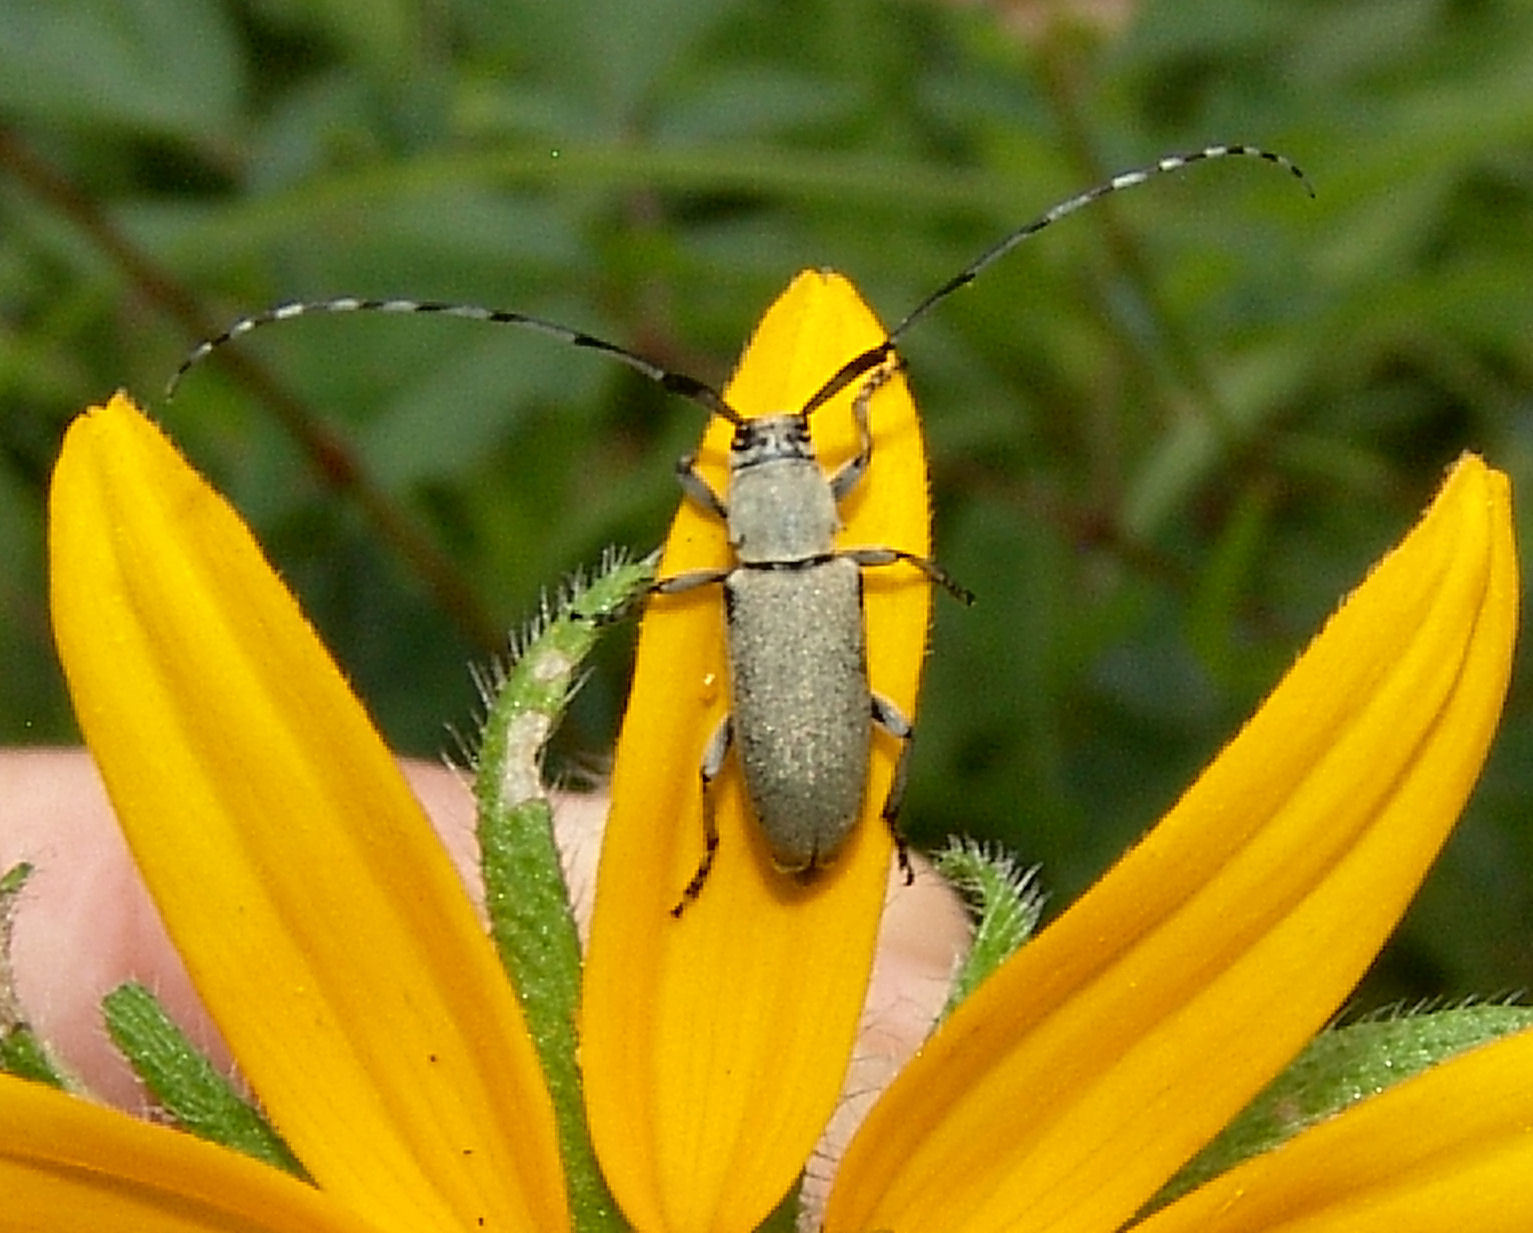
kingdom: Animalia
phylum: Arthropoda
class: Insecta
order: Coleoptera
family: Cerambycidae
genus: Dectes
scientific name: Dectes texanus
